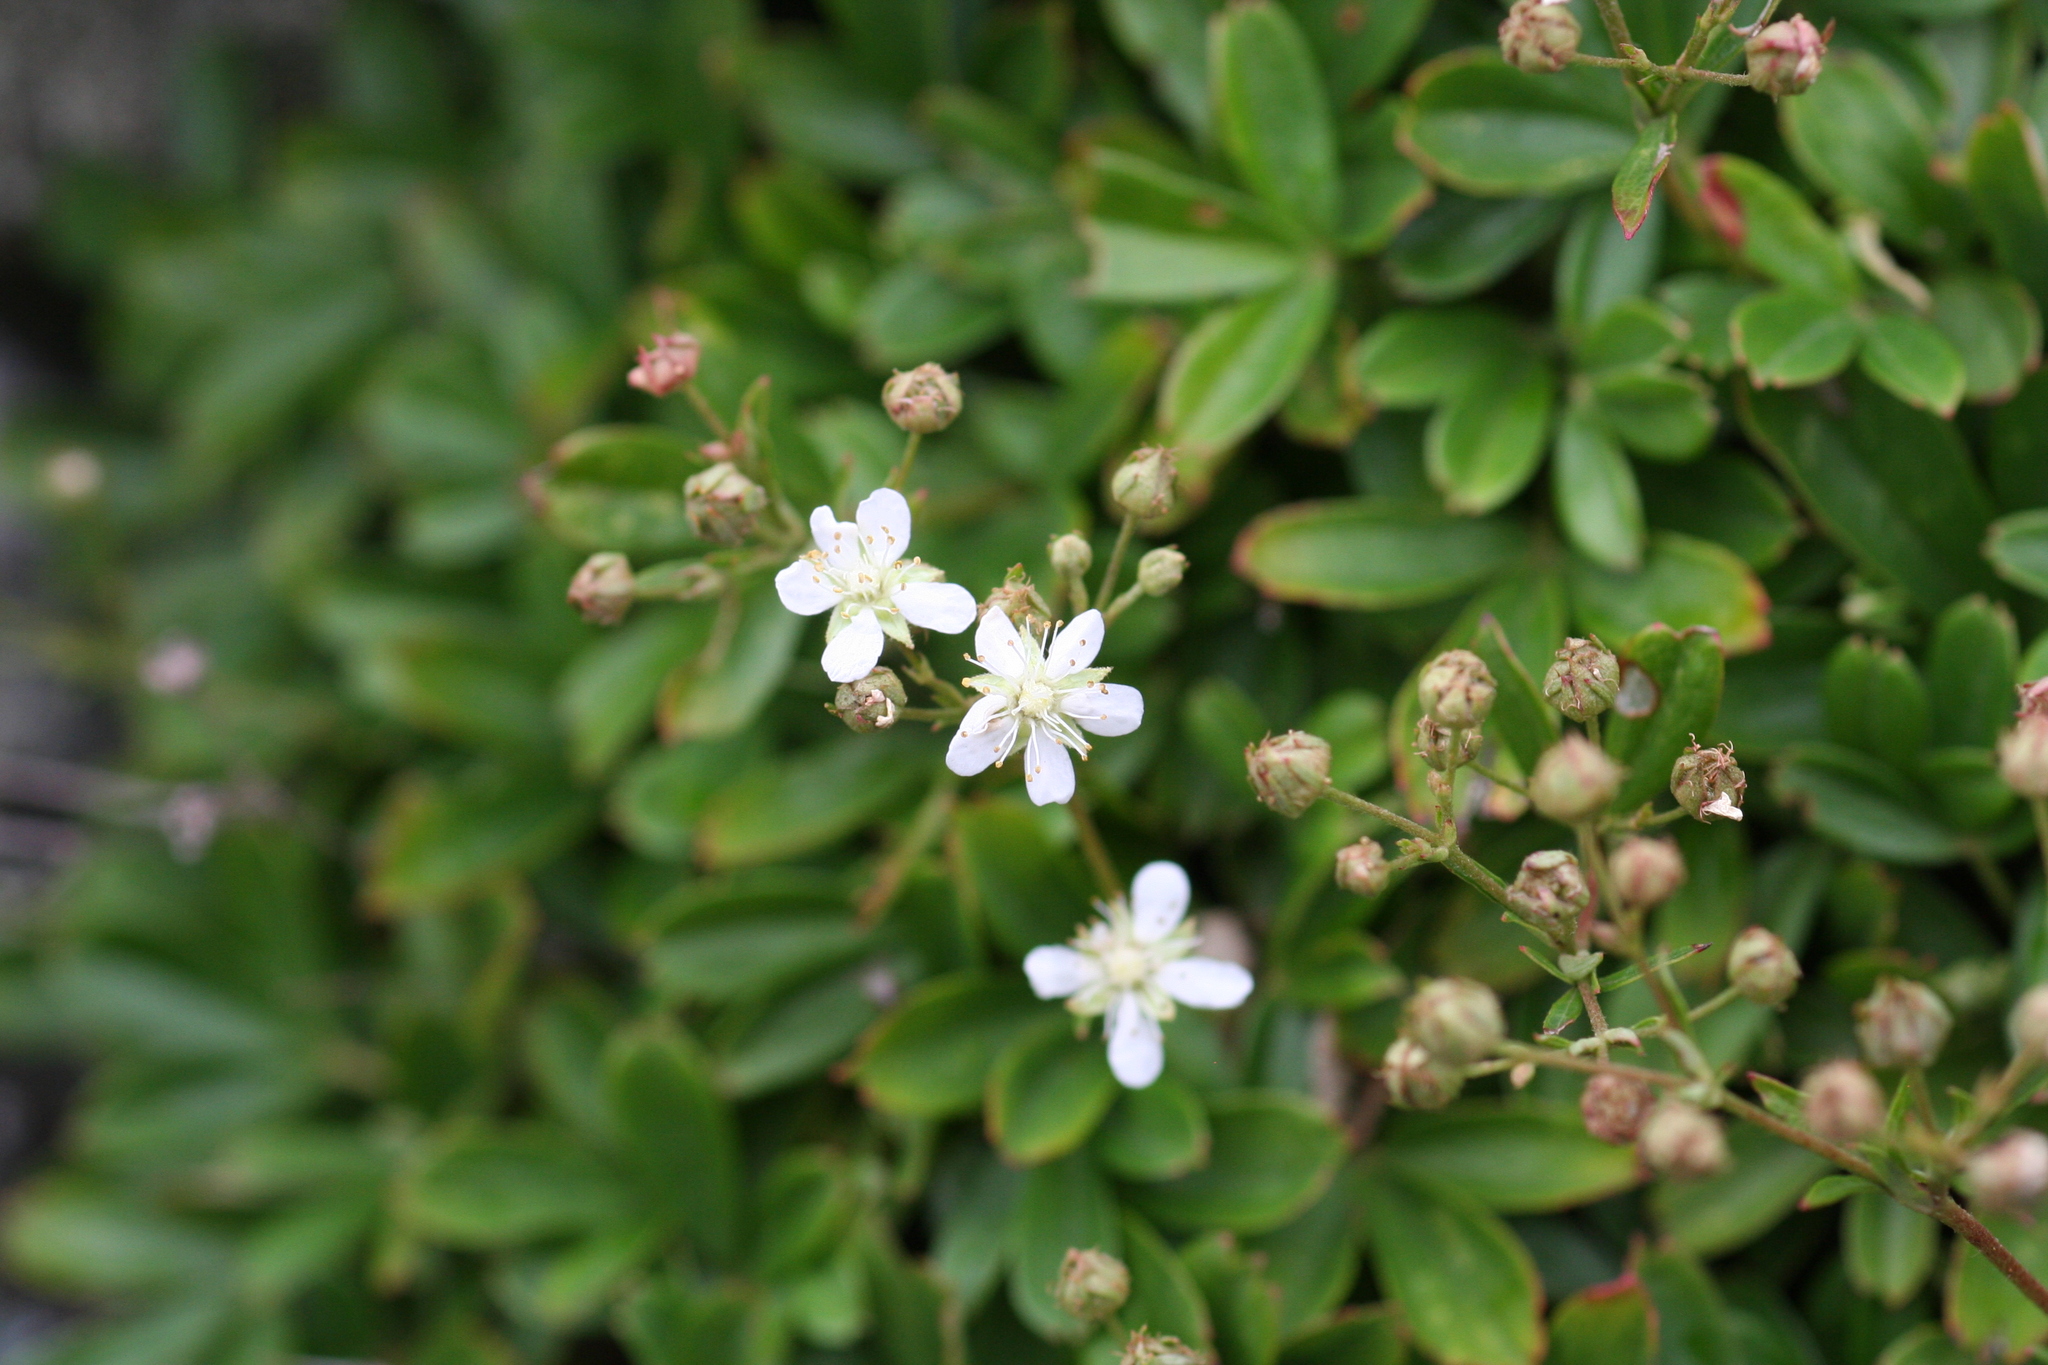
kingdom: Plantae
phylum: Tracheophyta
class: Magnoliopsida
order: Rosales
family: Rosaceae
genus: Sibbaldia
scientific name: Sibbaldia tridentata
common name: Three-toothed cinquefoil
